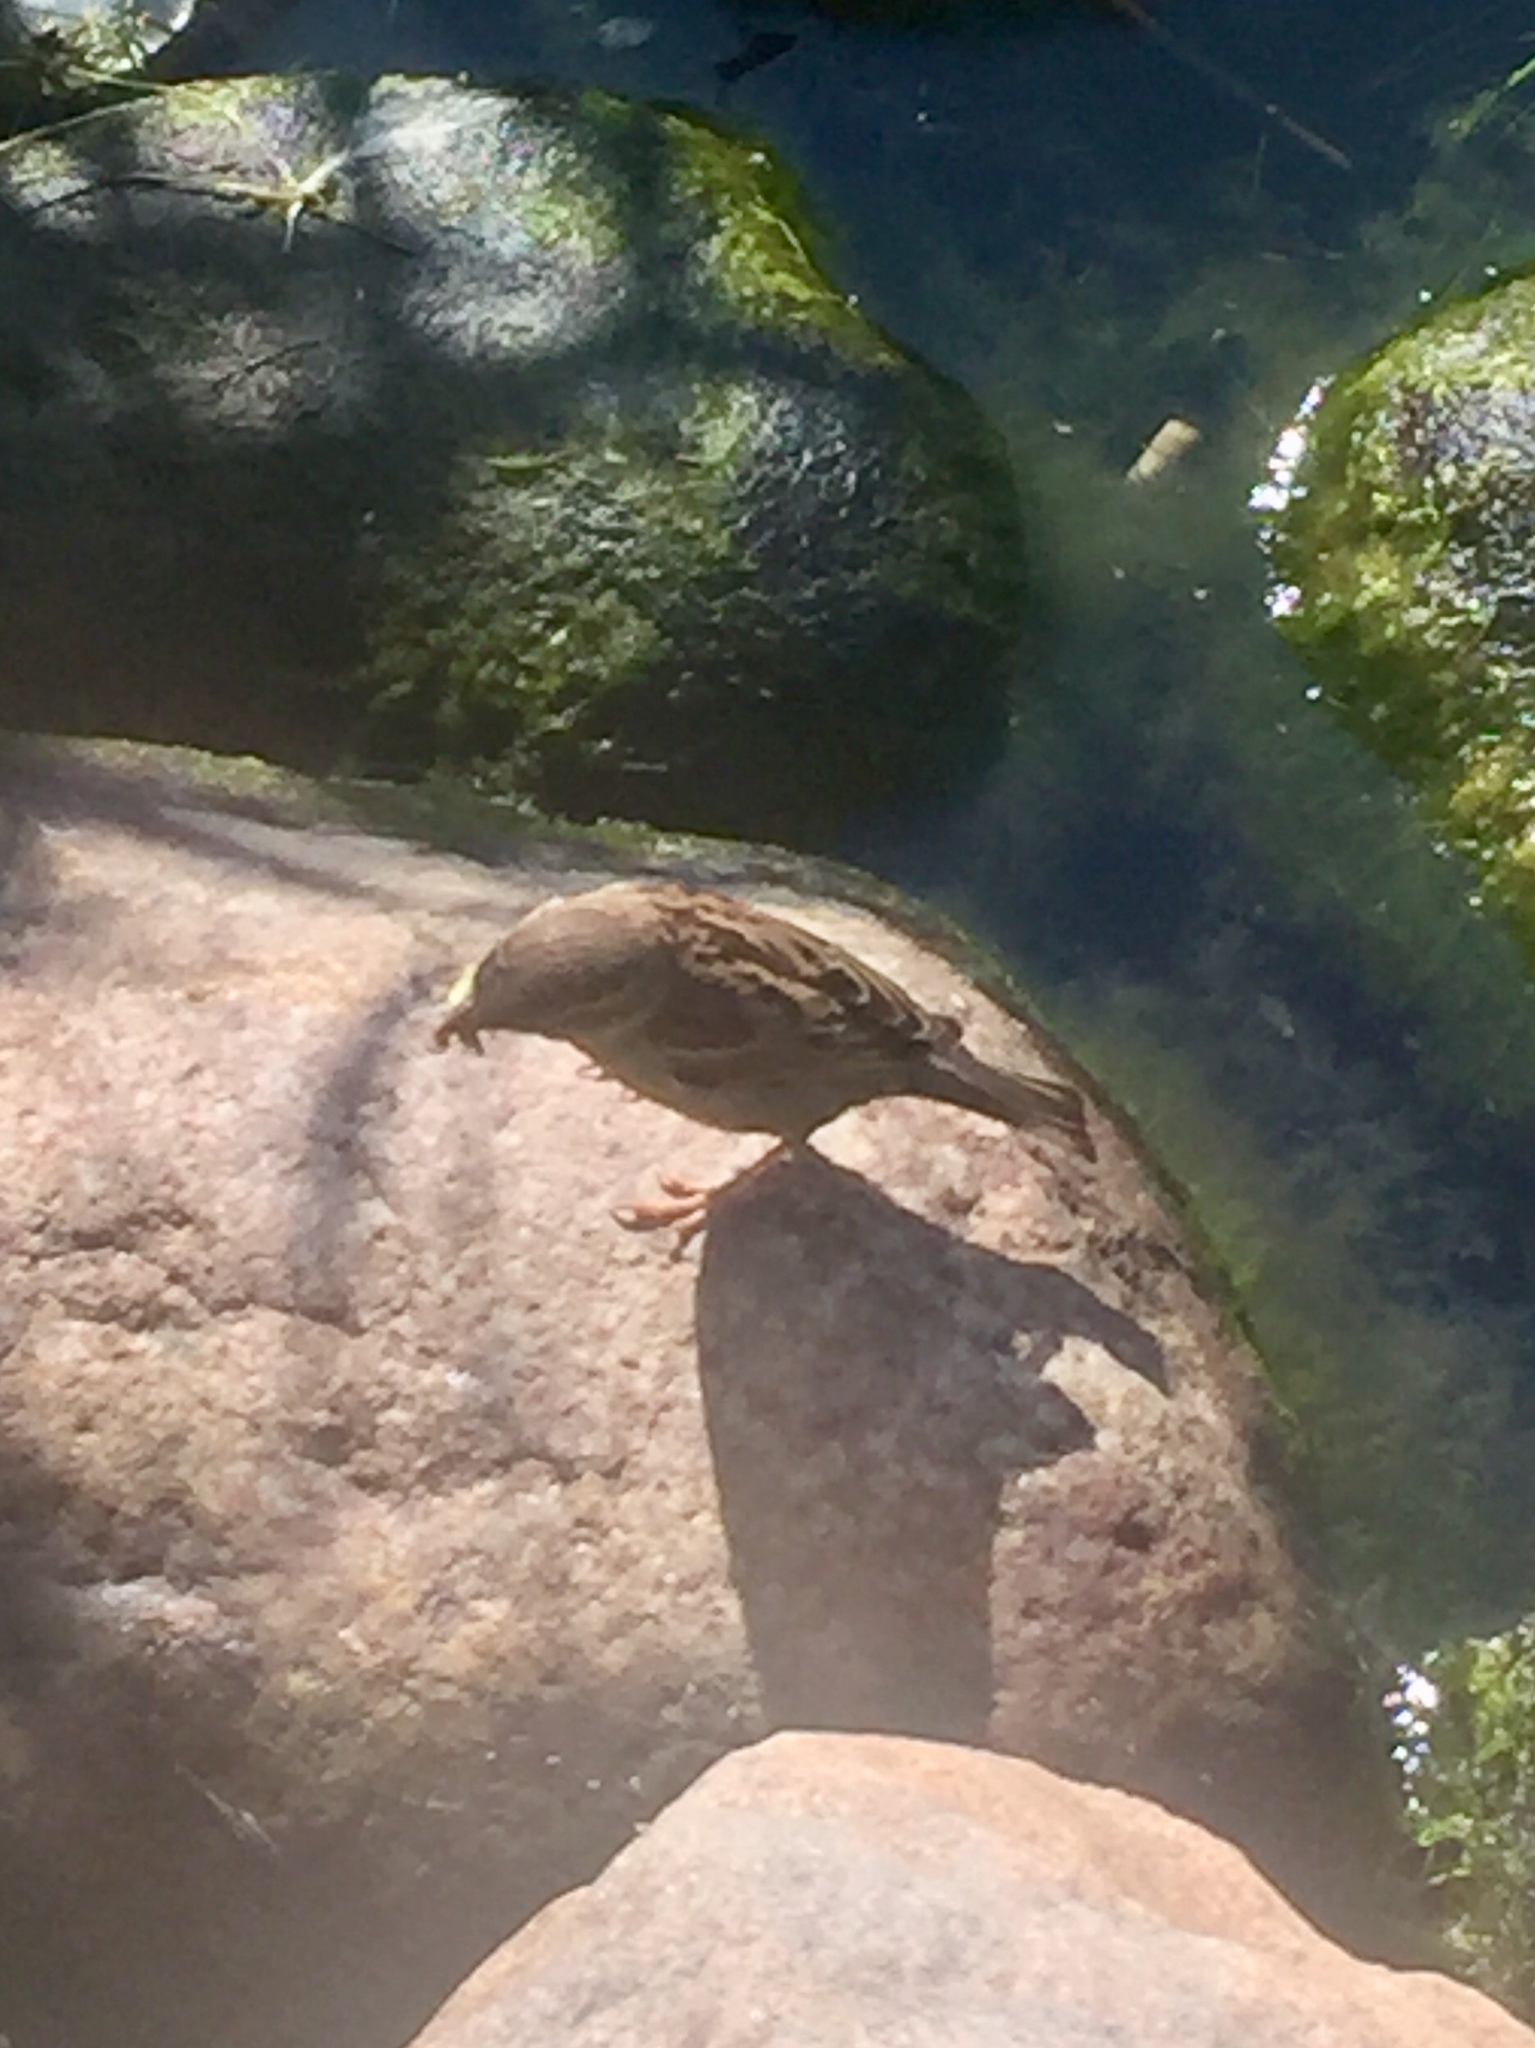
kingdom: Animalia
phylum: Chordata
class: Aves
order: Passeriformes
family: Passeridae
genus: Passer
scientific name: Passer domesticus
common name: House sparrow
